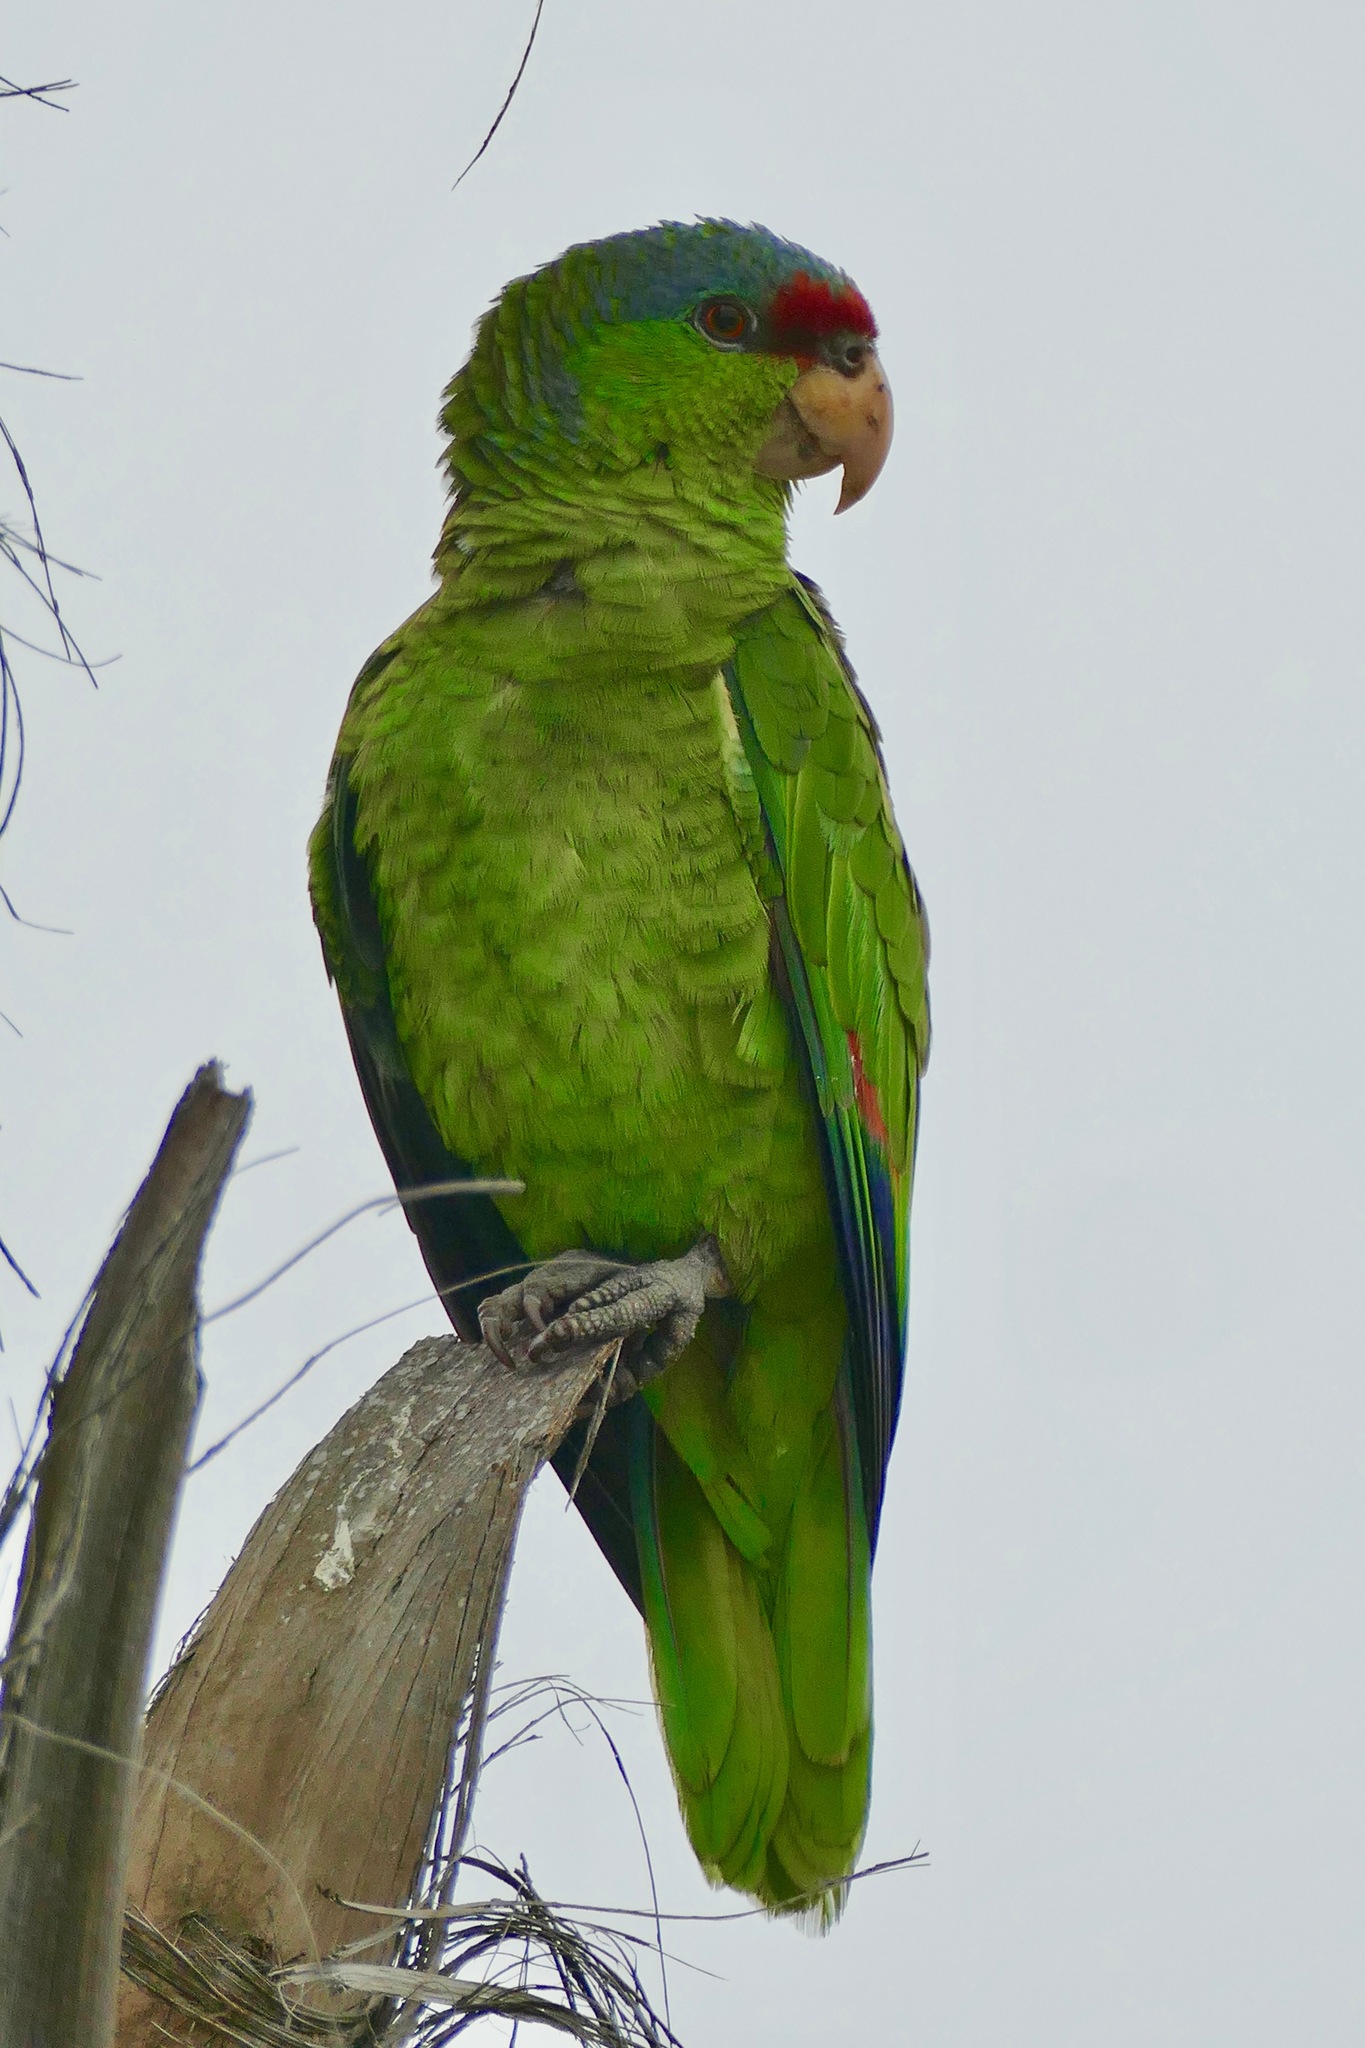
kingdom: Animalia
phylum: Chordata
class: Aves
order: Psittaciformes
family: Psittacidae
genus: Amazona
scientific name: Amazona finschi
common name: Lilac-crowned amazon
